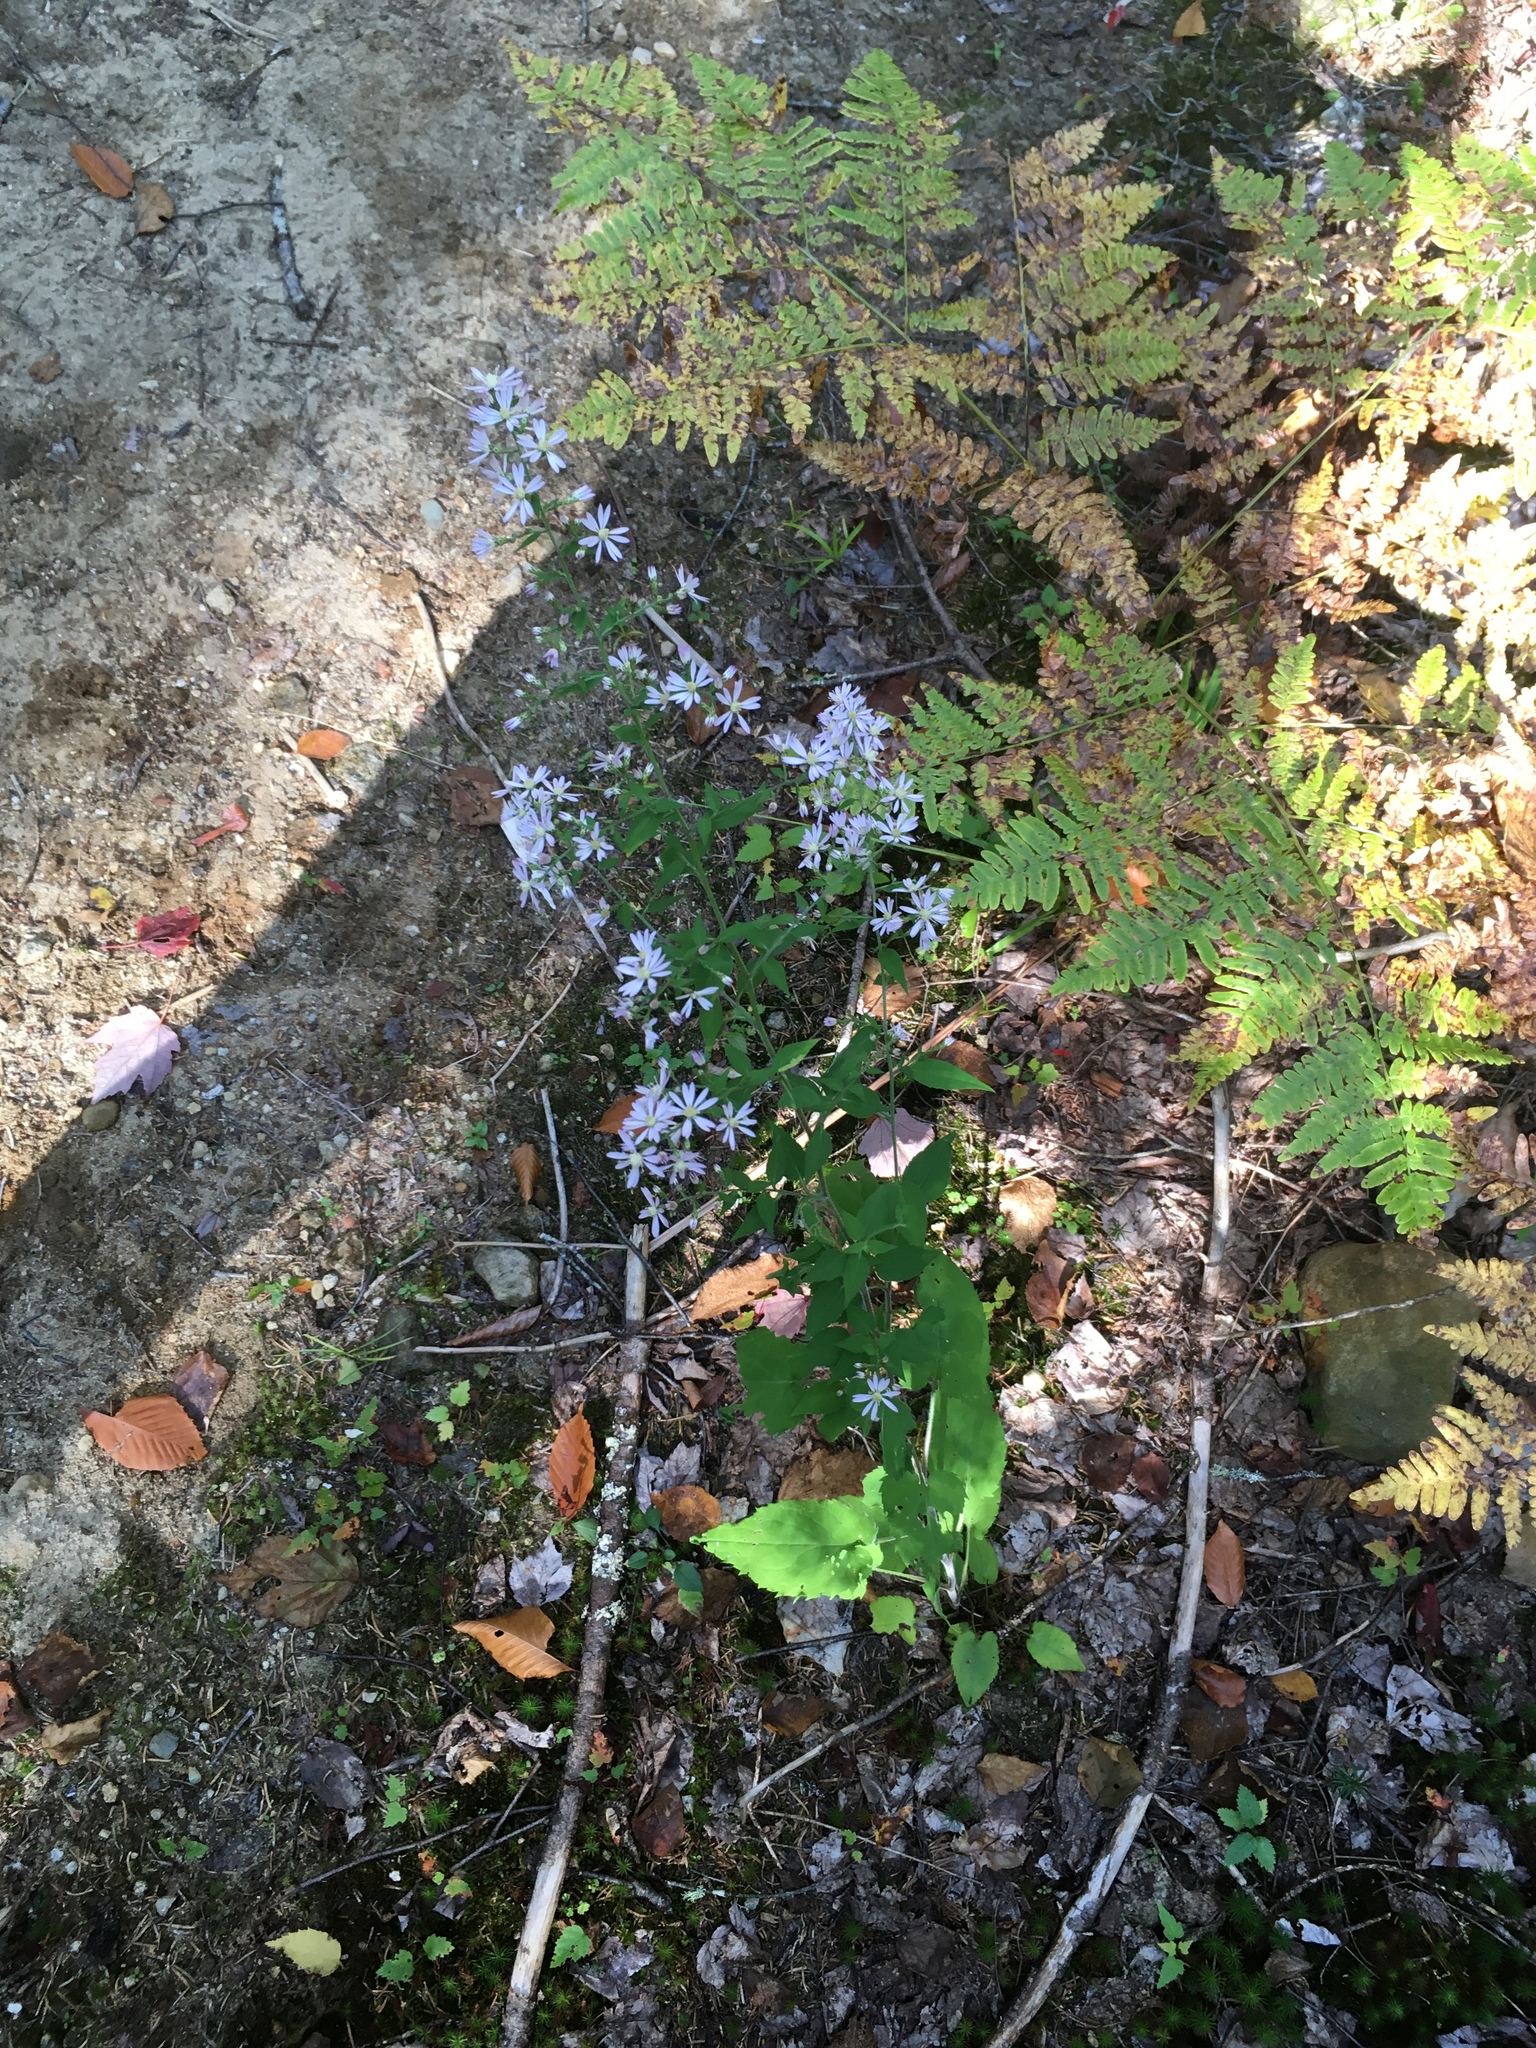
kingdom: Plantae
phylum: Tracheophyta
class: Magnoliopsida
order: Asterales
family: Asteraceae
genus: Symphyotrichum
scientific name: Symphyotrichum cordifolium
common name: Beeweed
